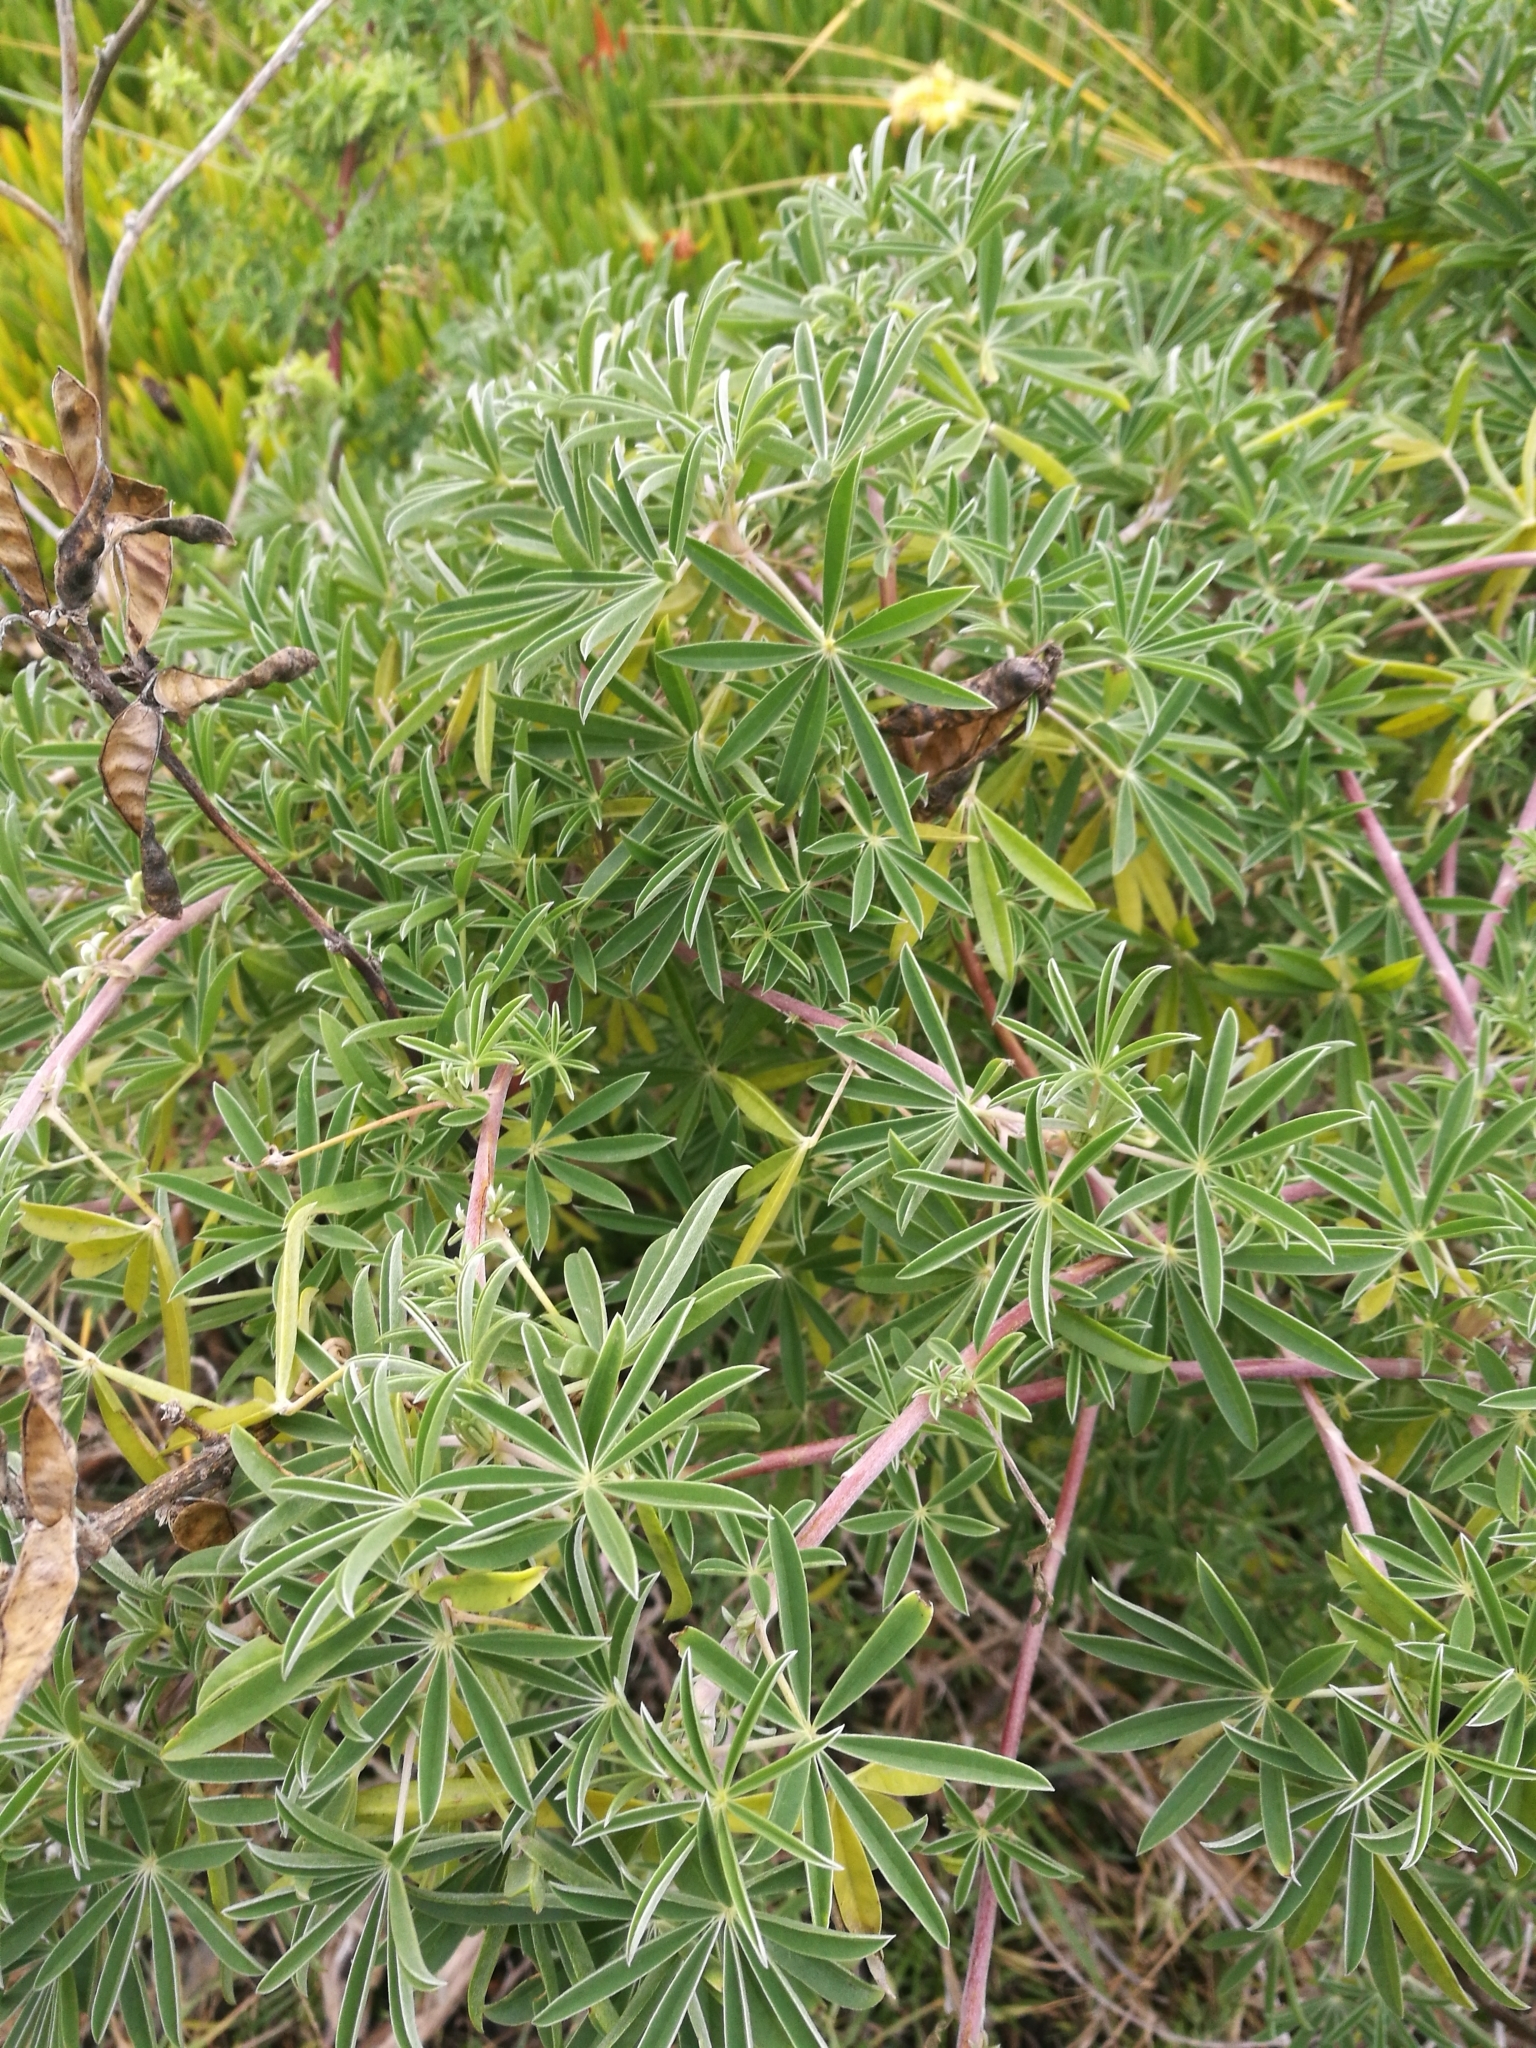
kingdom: Plantae
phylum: Tracheophyta
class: Magnoliopsida
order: Fabales
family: Fabaceae
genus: Lupinus
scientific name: Lupinus arboreus
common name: Yellow bush lupine
